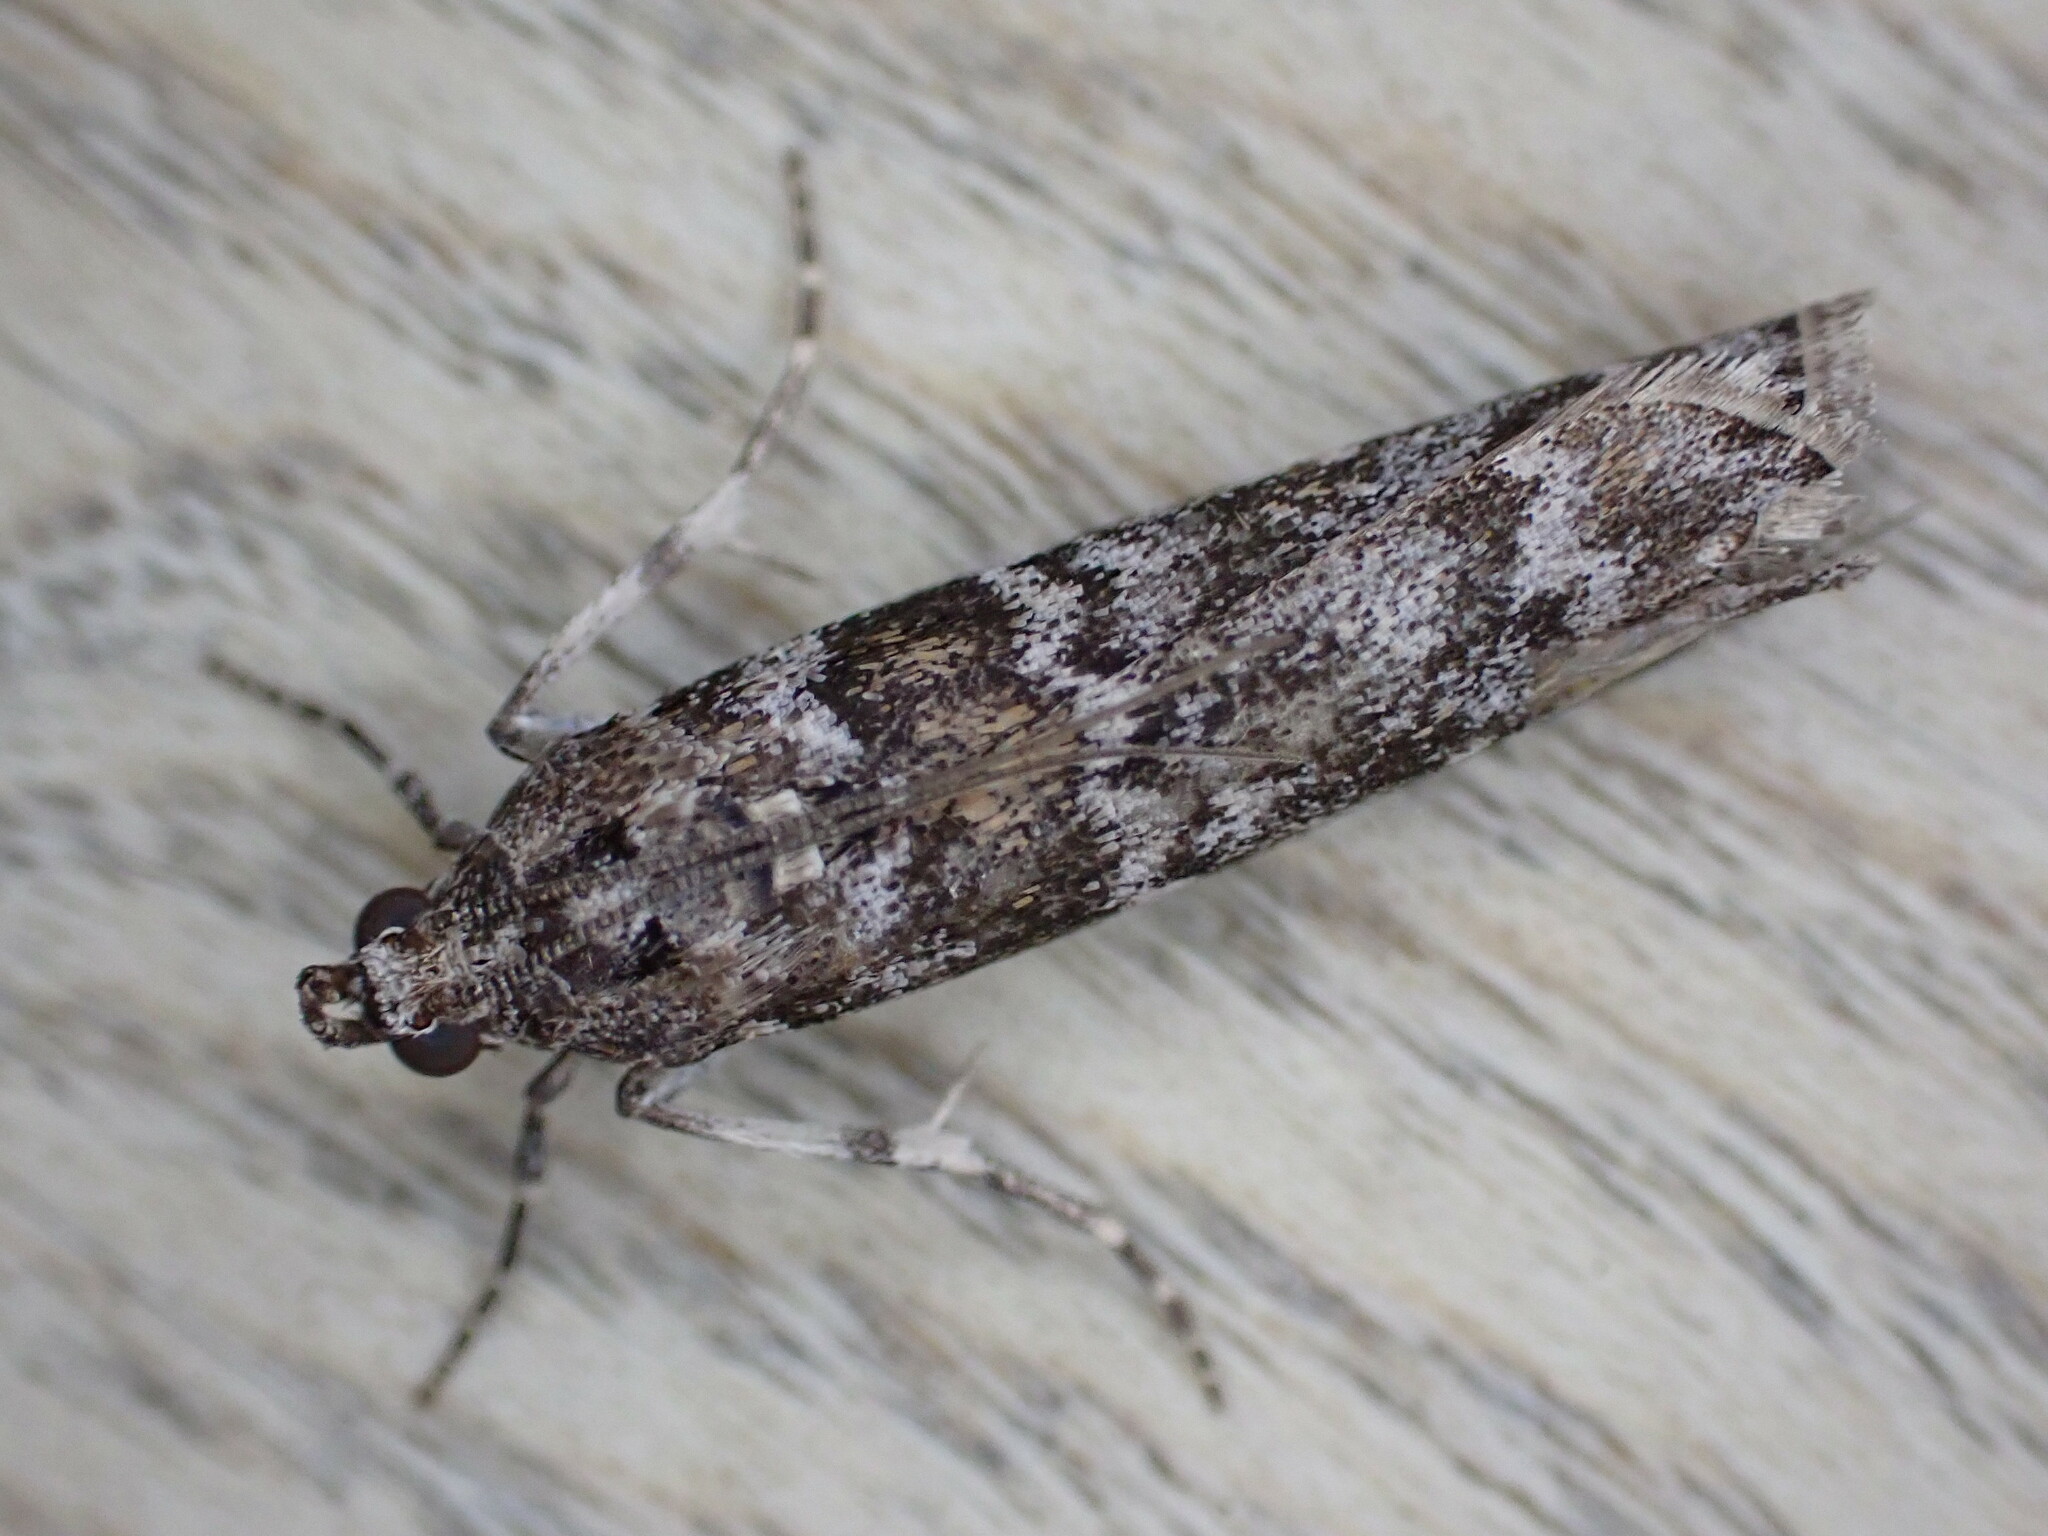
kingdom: Animalia
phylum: Arthropoda
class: Insecta
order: Lepidoptera
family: Pyralidae
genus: Dioryctria
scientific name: Dioryctria abietella
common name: Dark pine knot-horn
